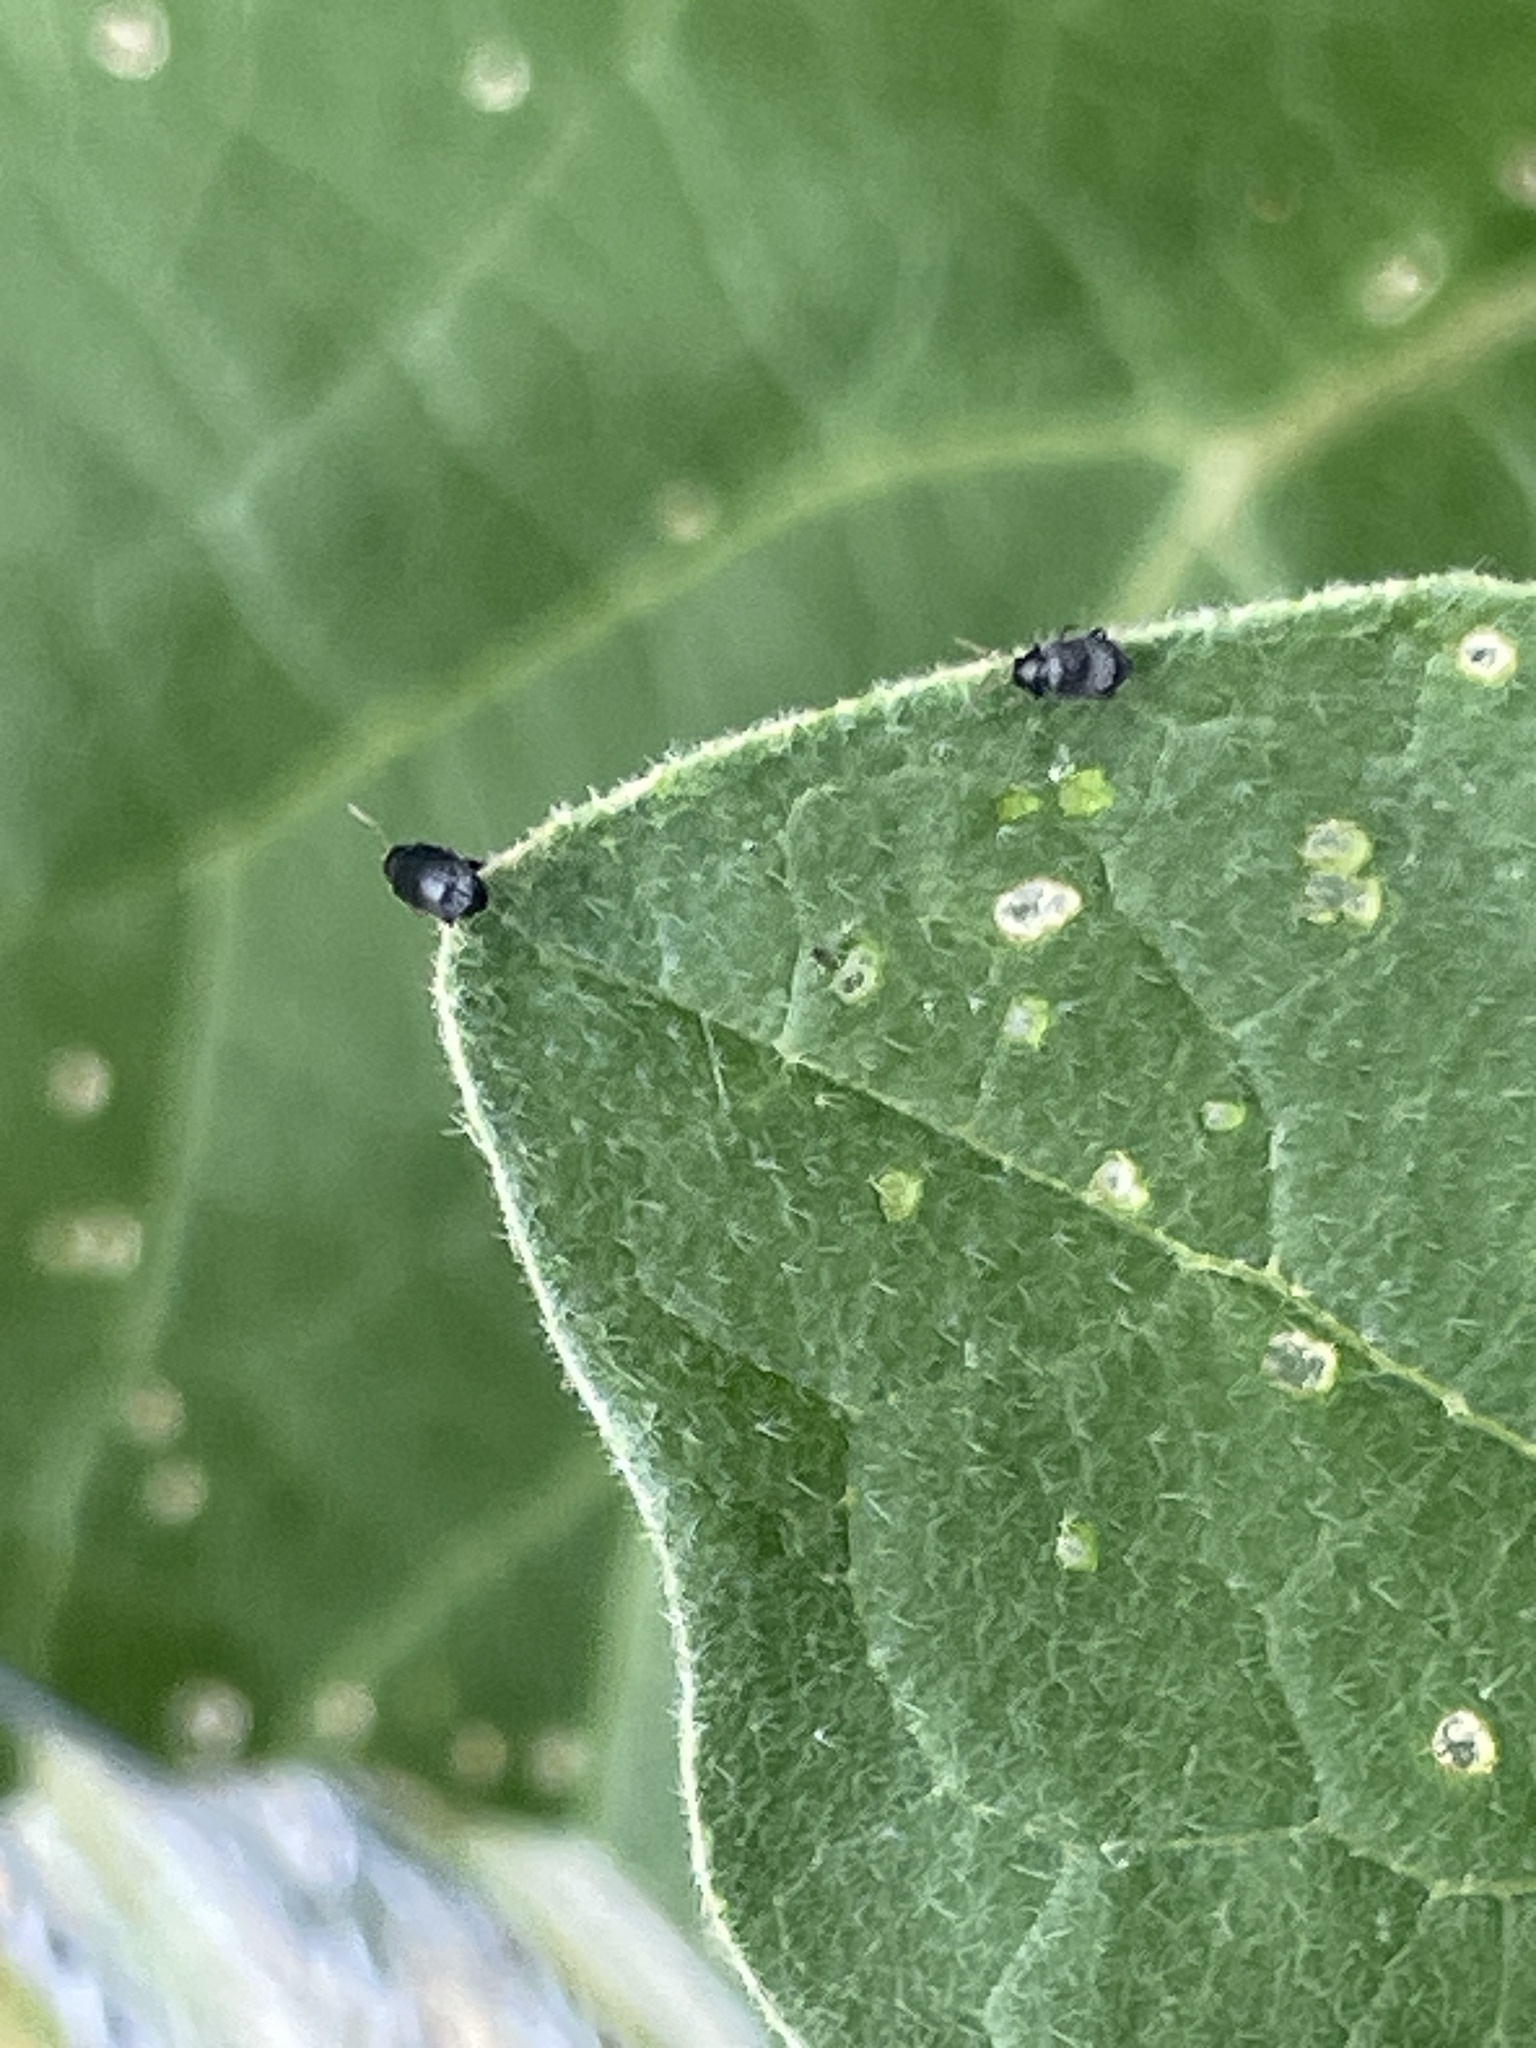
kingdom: Animalia
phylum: Arthropoda
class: Insecta
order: Coleoptera
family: Chrysomelidae
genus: Epitrix
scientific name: Epitrix fuscula
